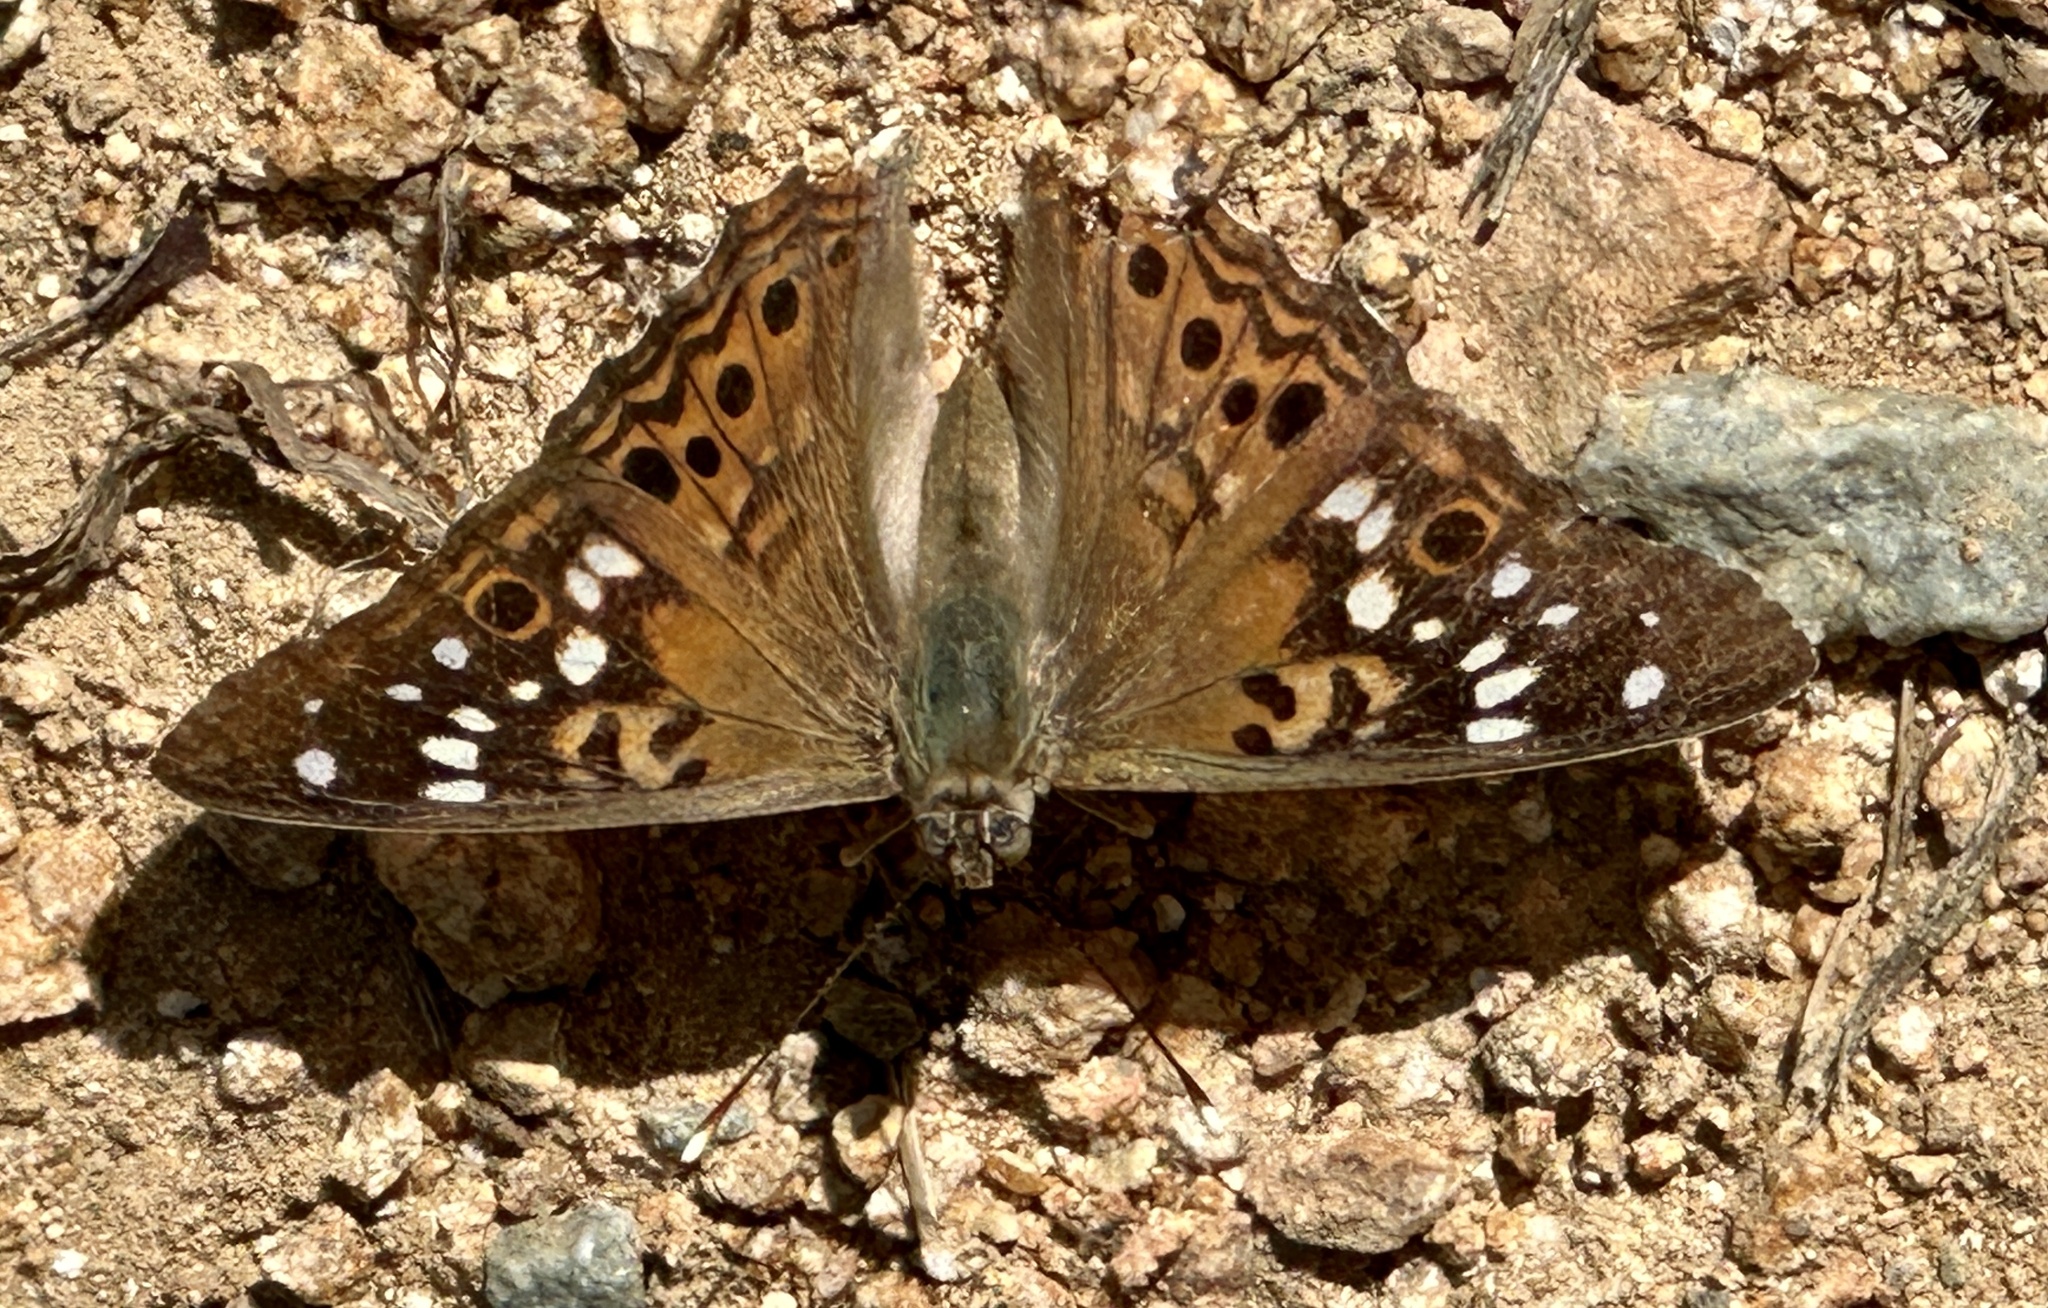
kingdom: Animalia
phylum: Arthropoda
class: Insecta
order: Lepidoptera
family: Nymphalidae
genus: Asterocampa
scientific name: Asterocampa celtis
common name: Hackberry emperor
